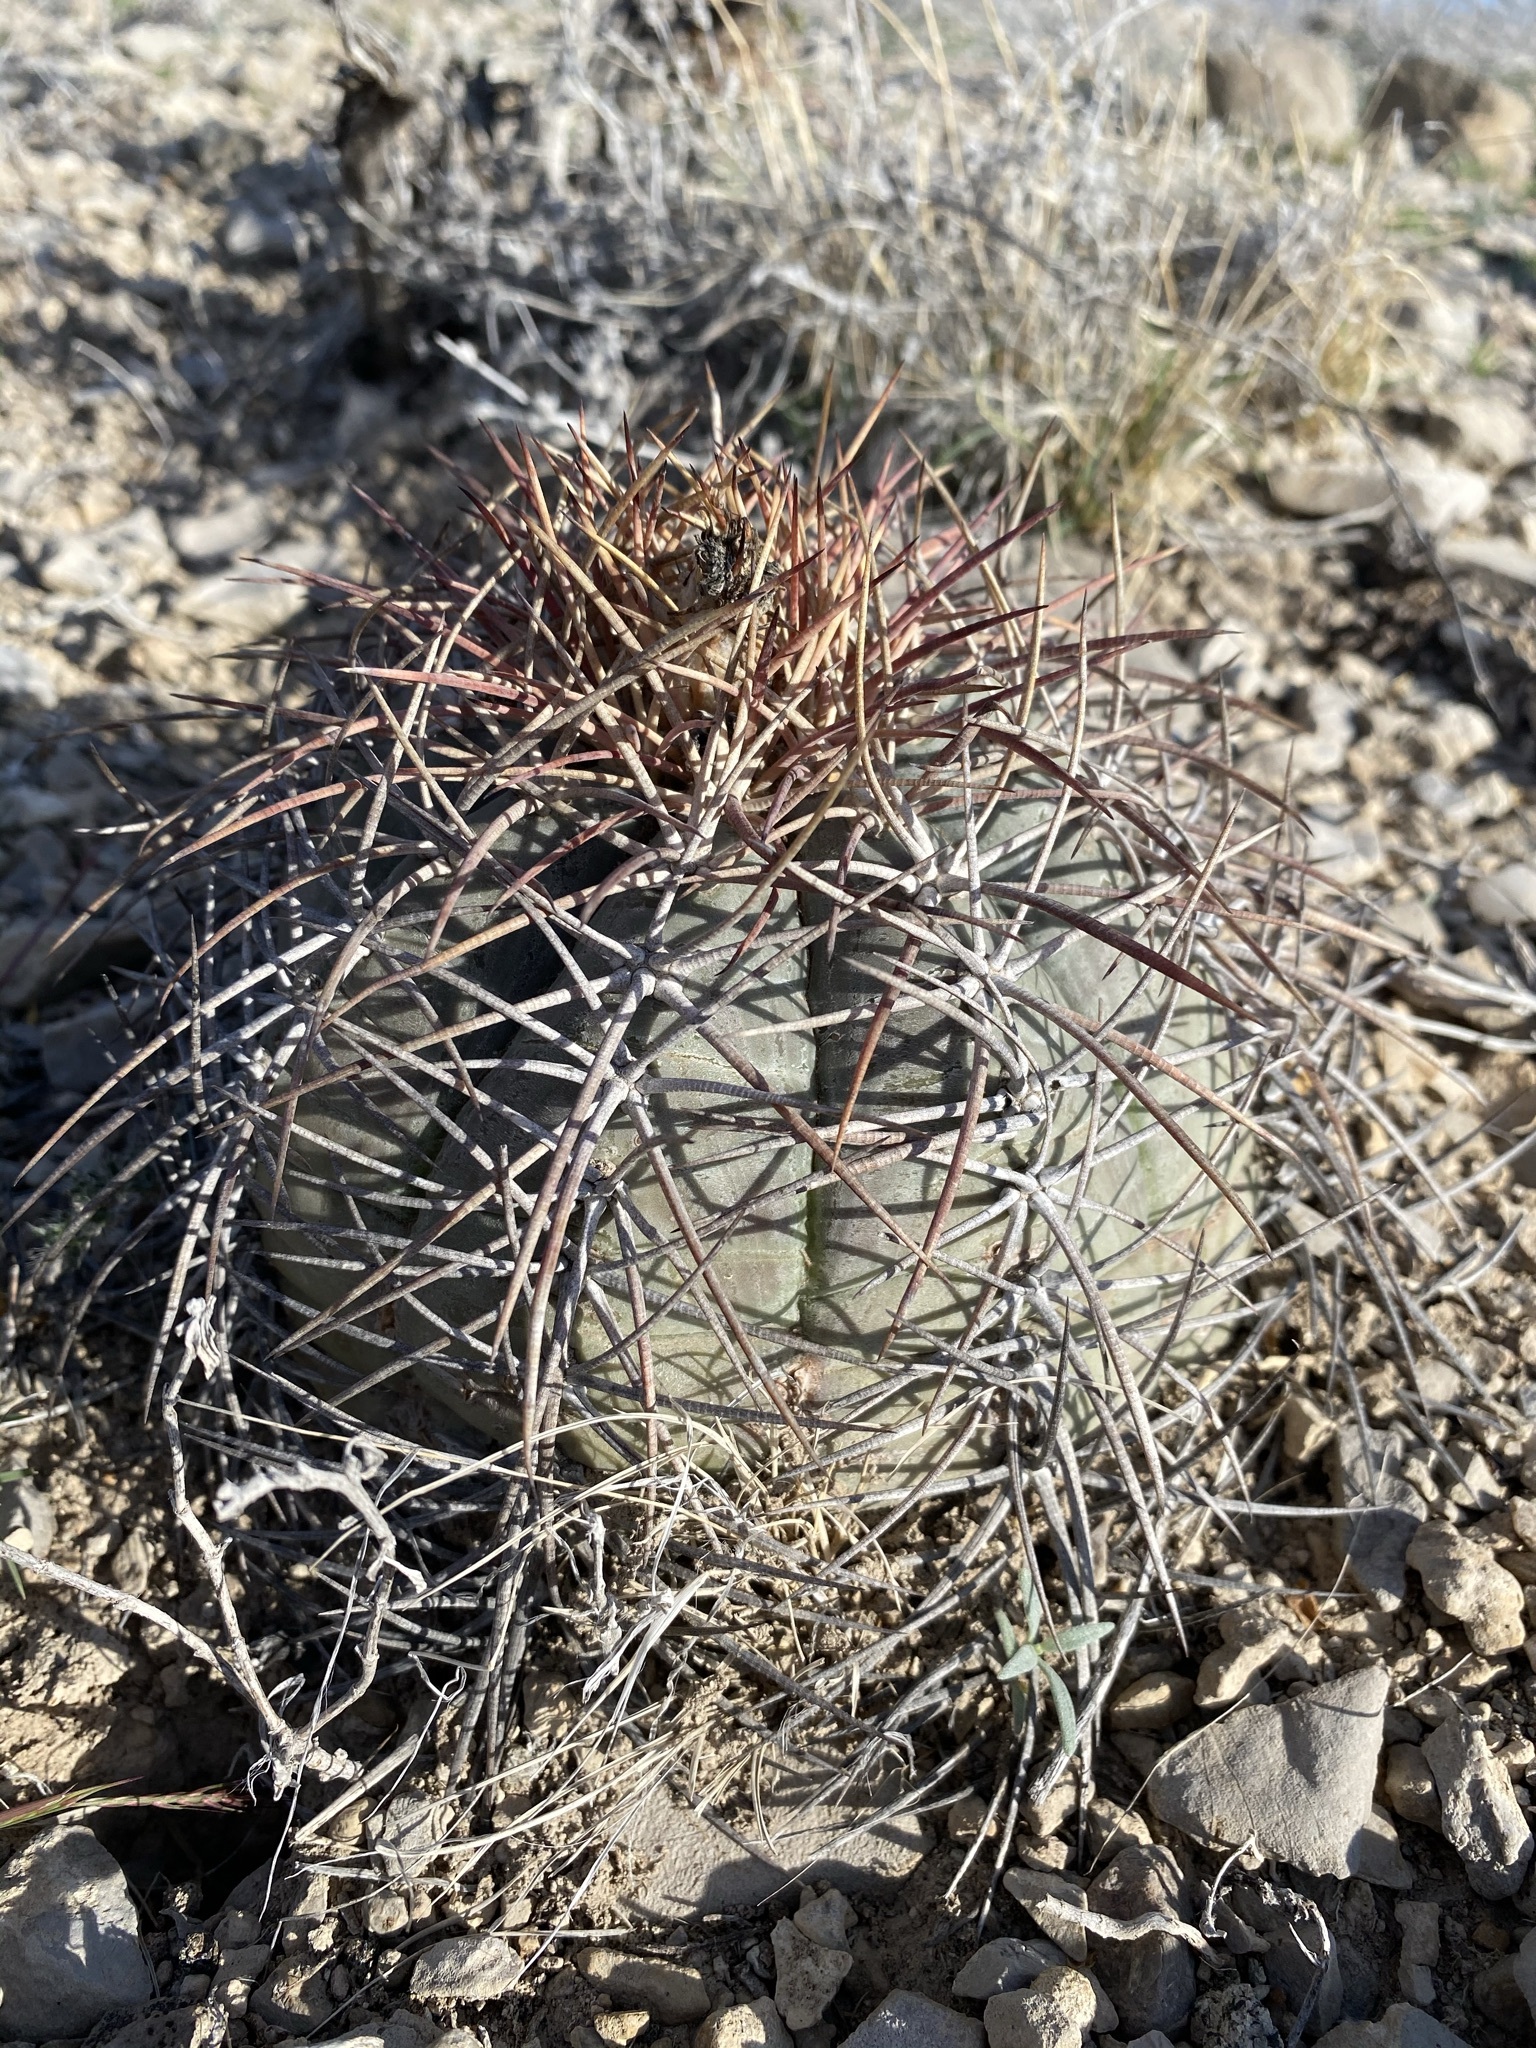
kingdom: Plantae
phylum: Tracheophyta
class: Magnoliopsida
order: Caryophyllales
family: Cactaceae
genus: Echinocactus
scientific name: Echinocactus horizonthalonius
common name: Devilshead
